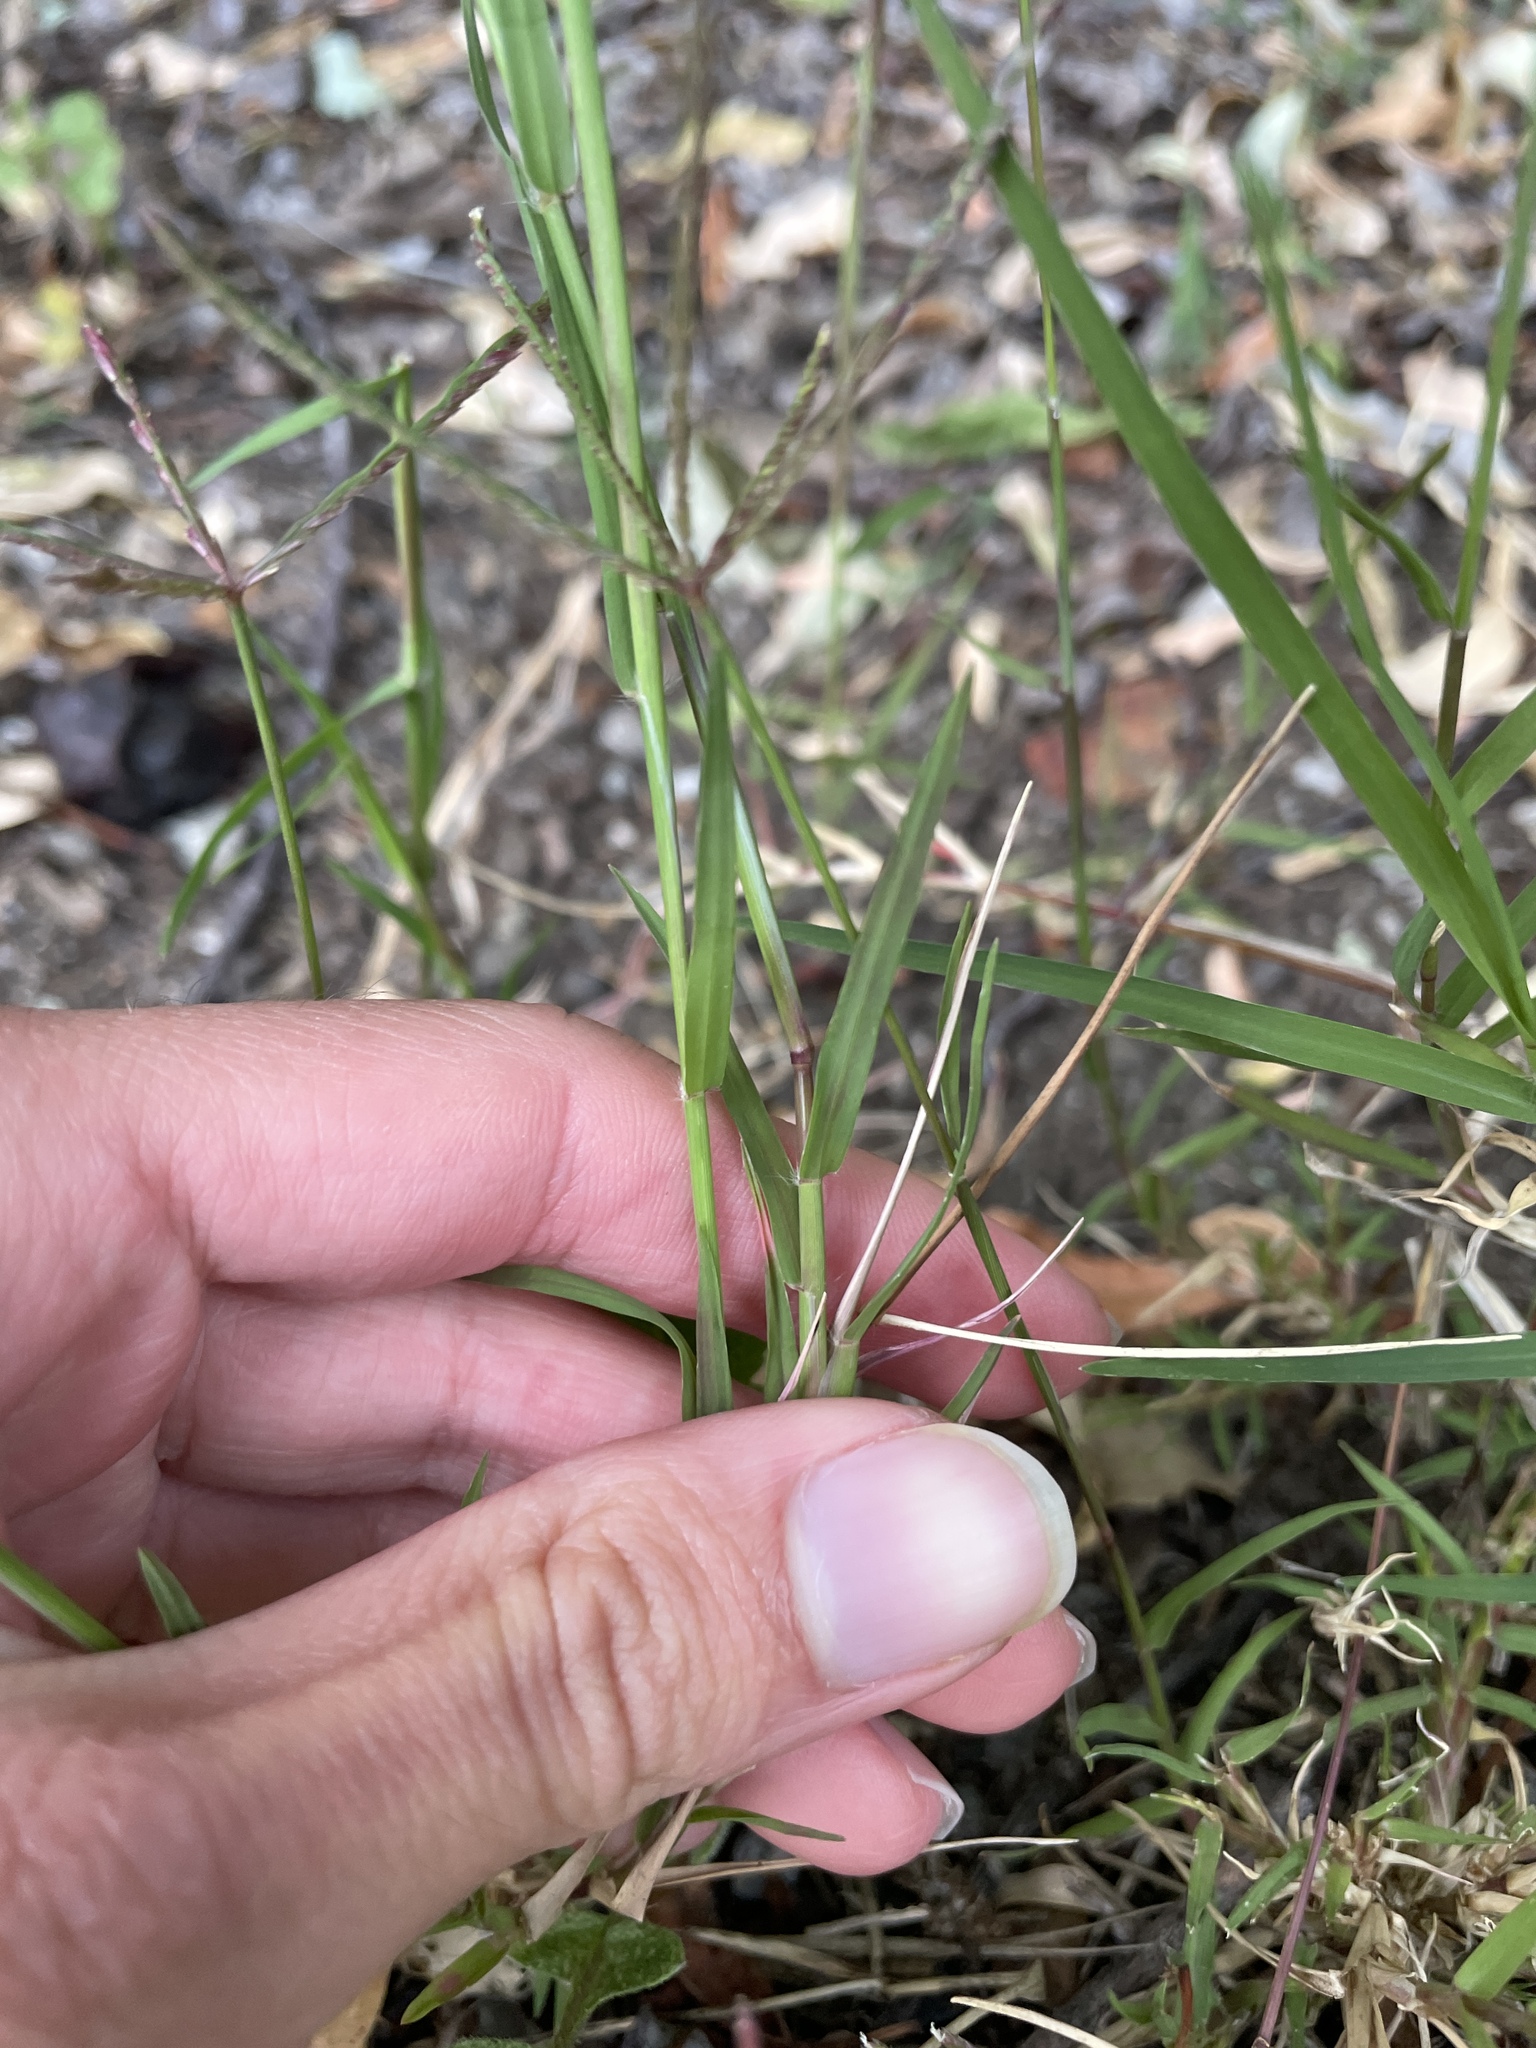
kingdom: Plantae
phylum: Tracheophyta
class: Liliopsida
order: Poales
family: Poaceae
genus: Cynodon
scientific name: Cynodon dactylon
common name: Bermuda grass
